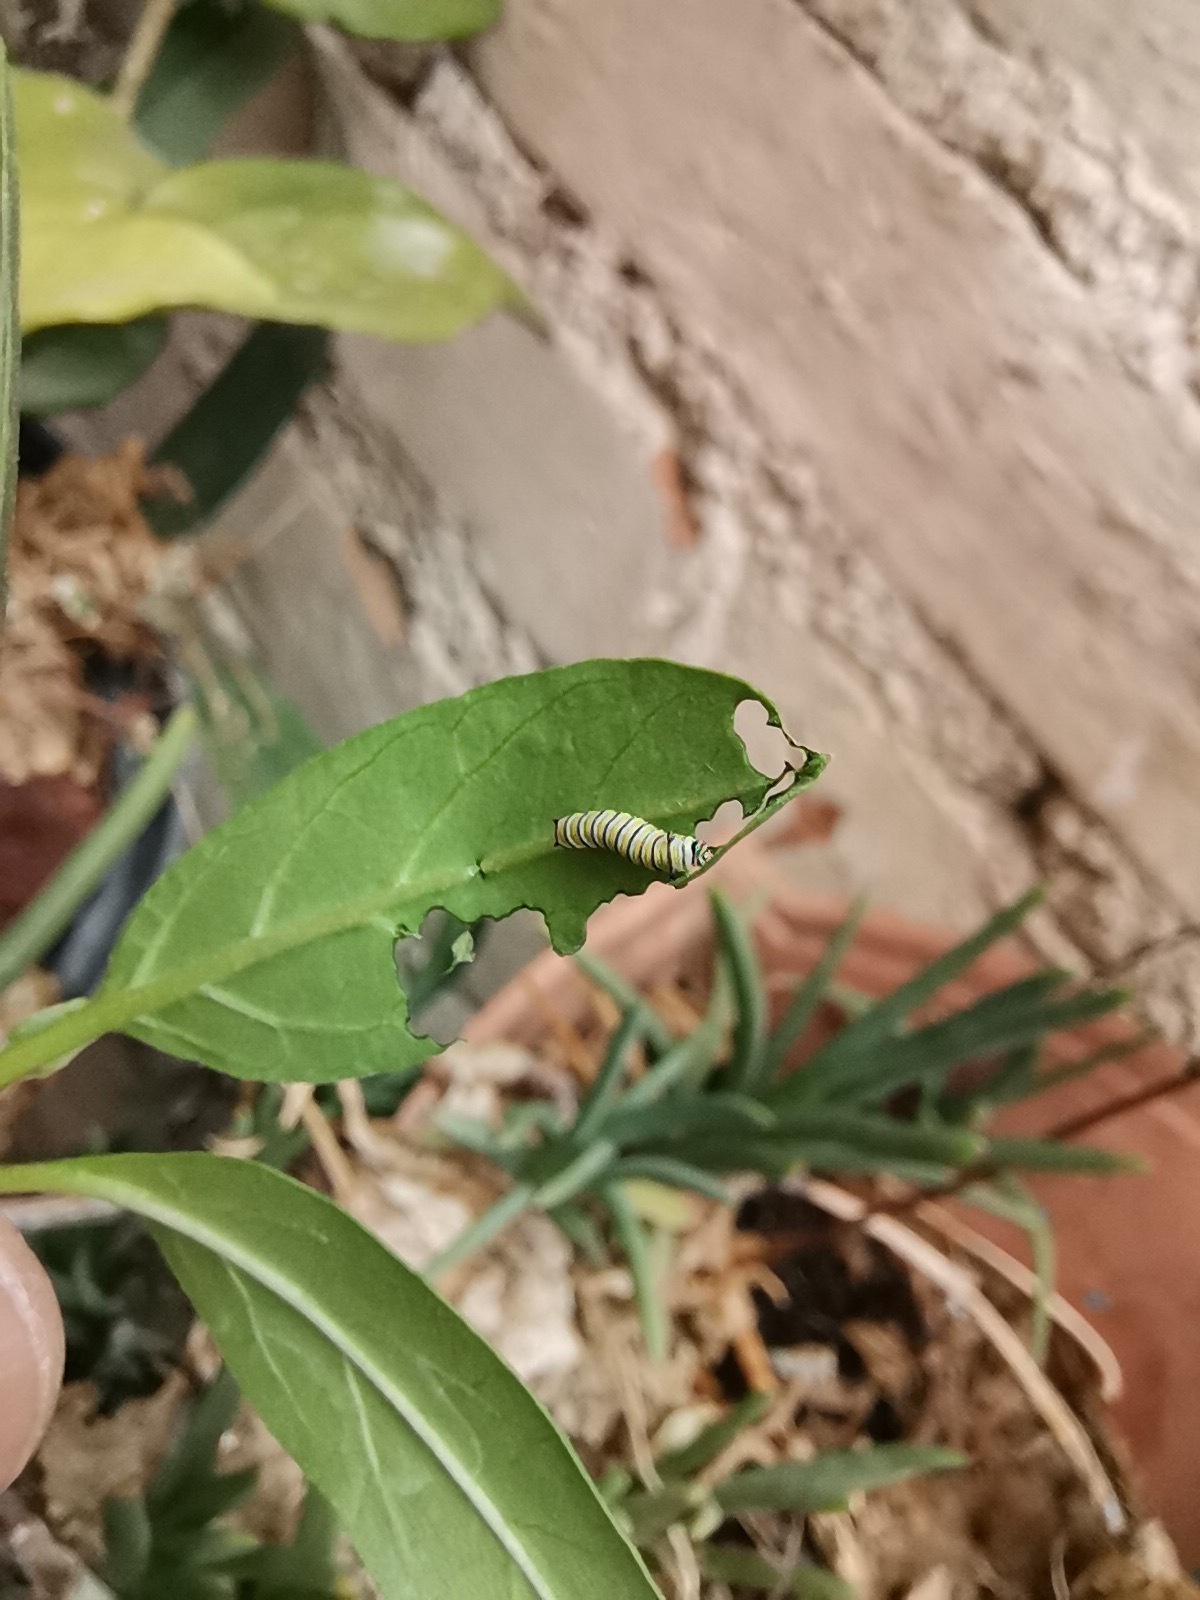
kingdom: Animalia
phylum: Arthropoda
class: Insecta
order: Lepidoptera
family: Nymphalidae
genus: Danaus
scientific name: Danaus plexippus
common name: Monarch
